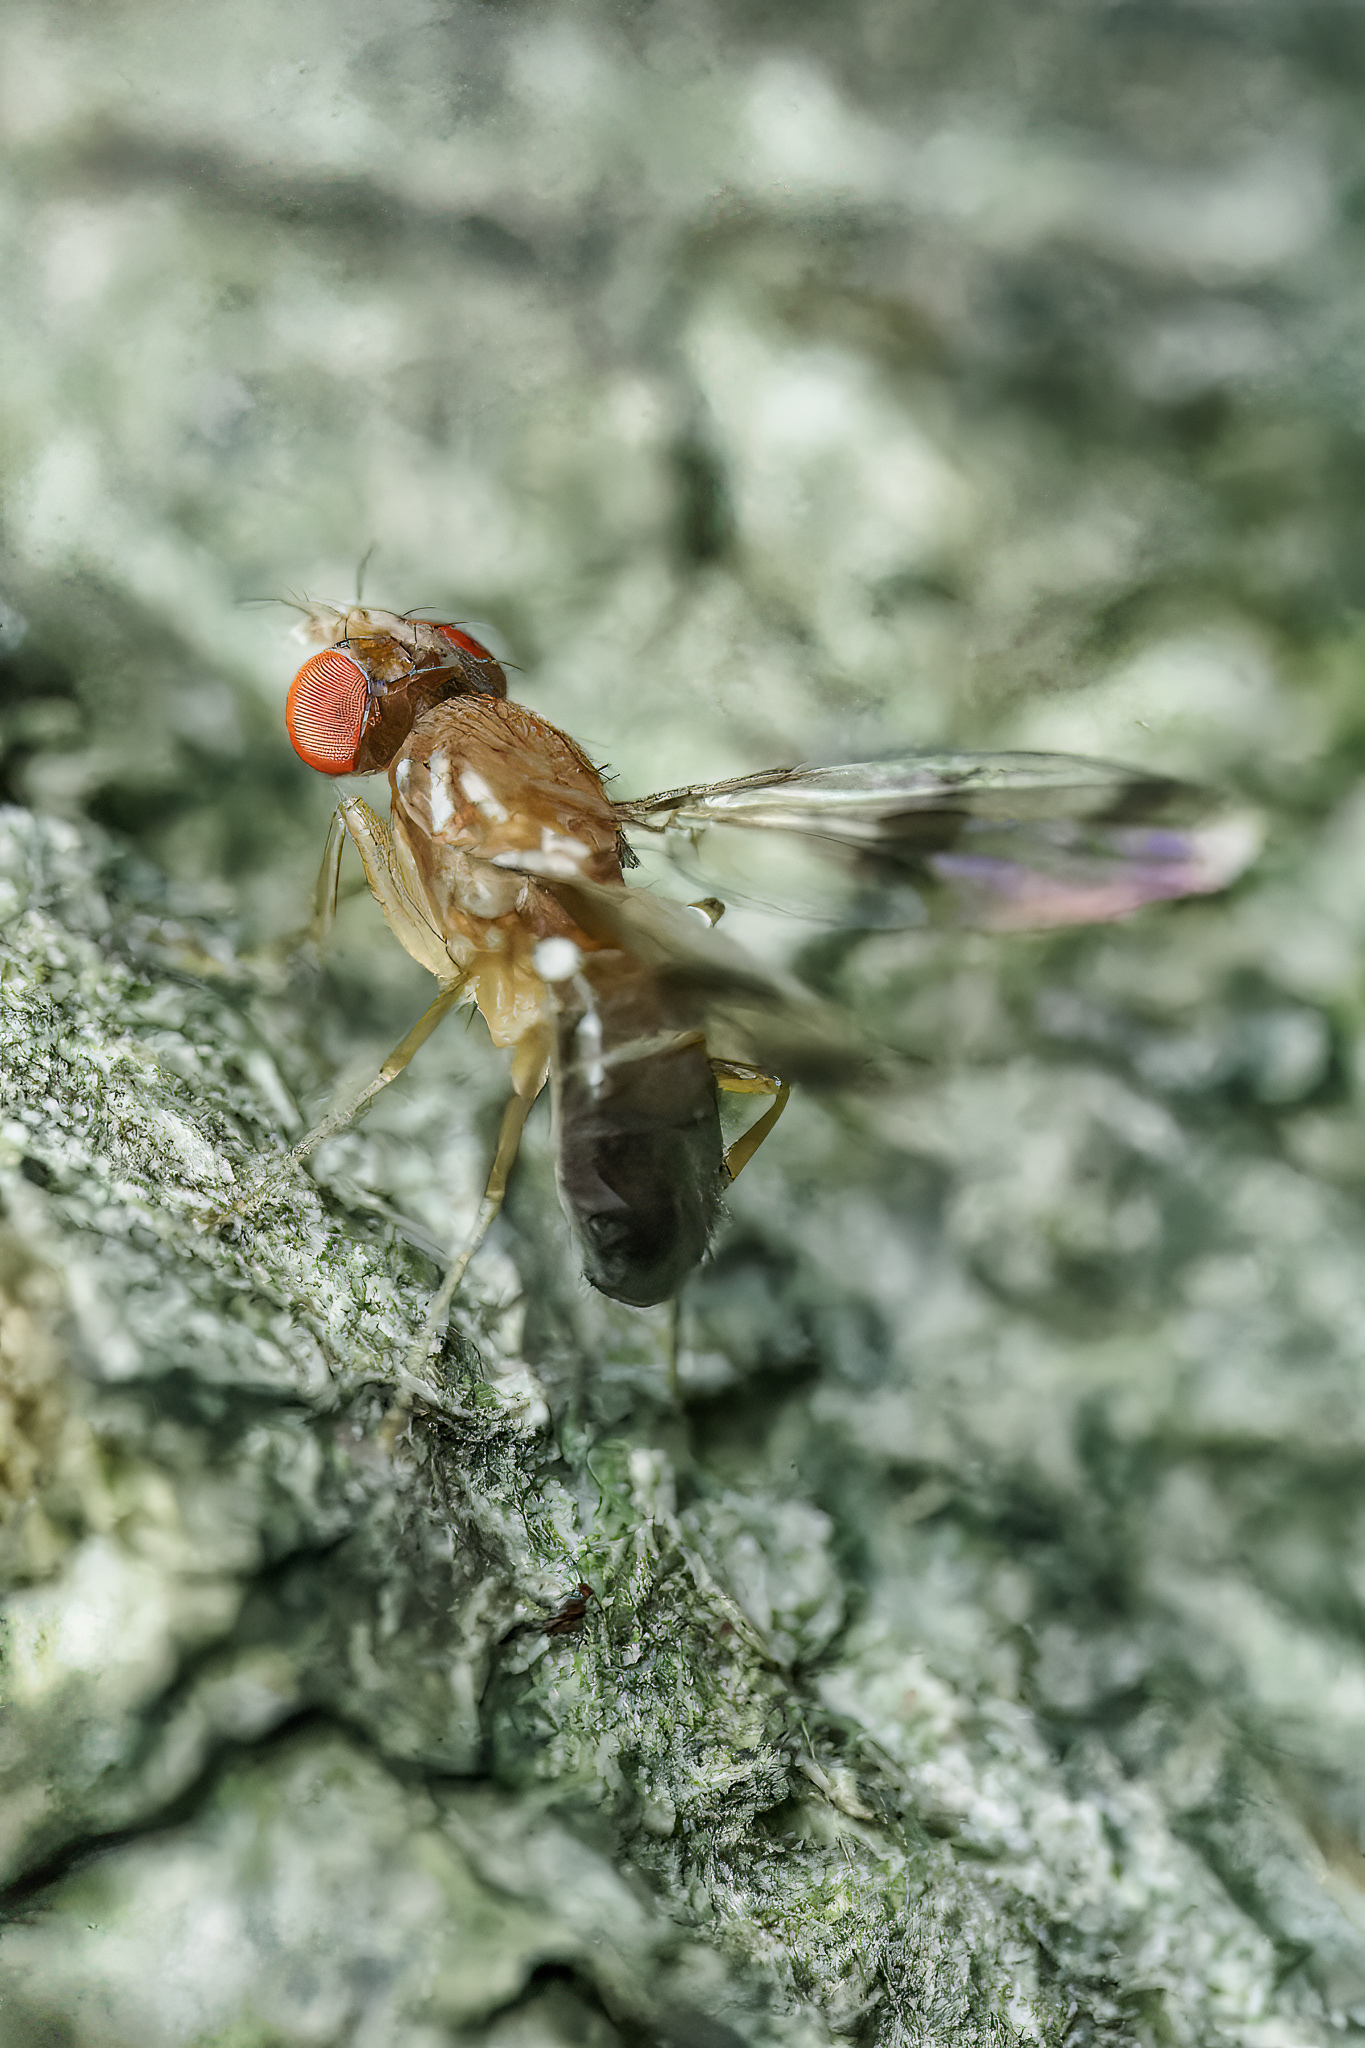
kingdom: Animalia
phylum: Arthropoda
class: Insecta
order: Diptera
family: Drosophilidae
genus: Chymomyza
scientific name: Chymomyza amoena
